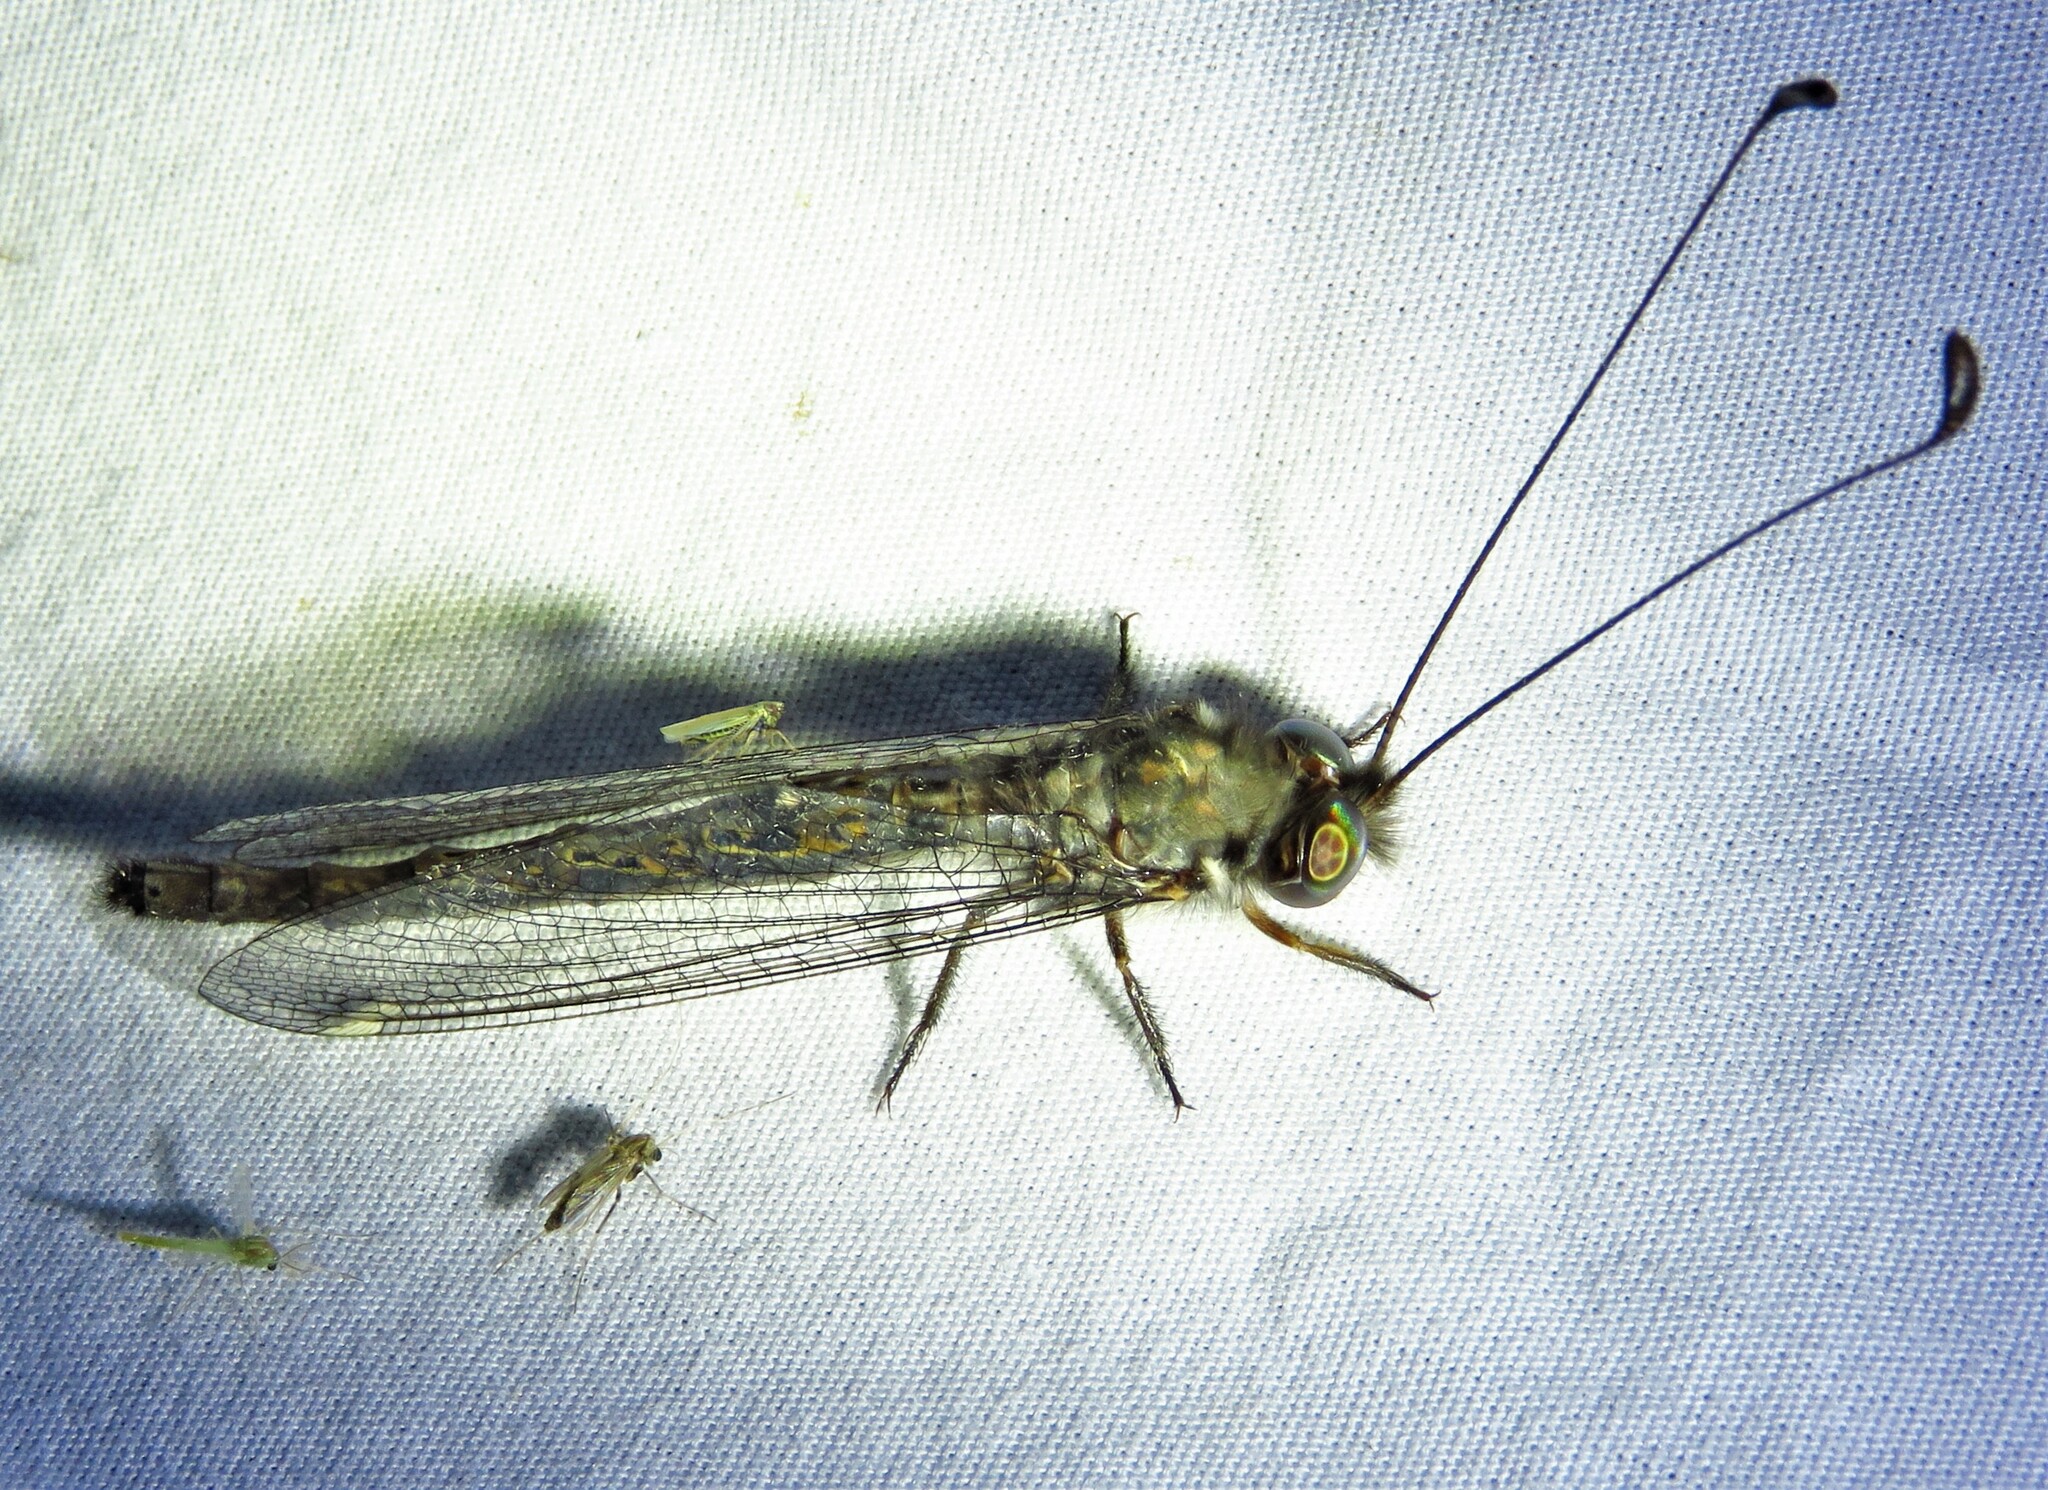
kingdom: Animalia
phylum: Arthropoda
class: Insecta
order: Neuroptera
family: Ascalaphidae
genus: Ululodes
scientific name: Ululodes quadripunctatus
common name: Four-spotted owlfly
